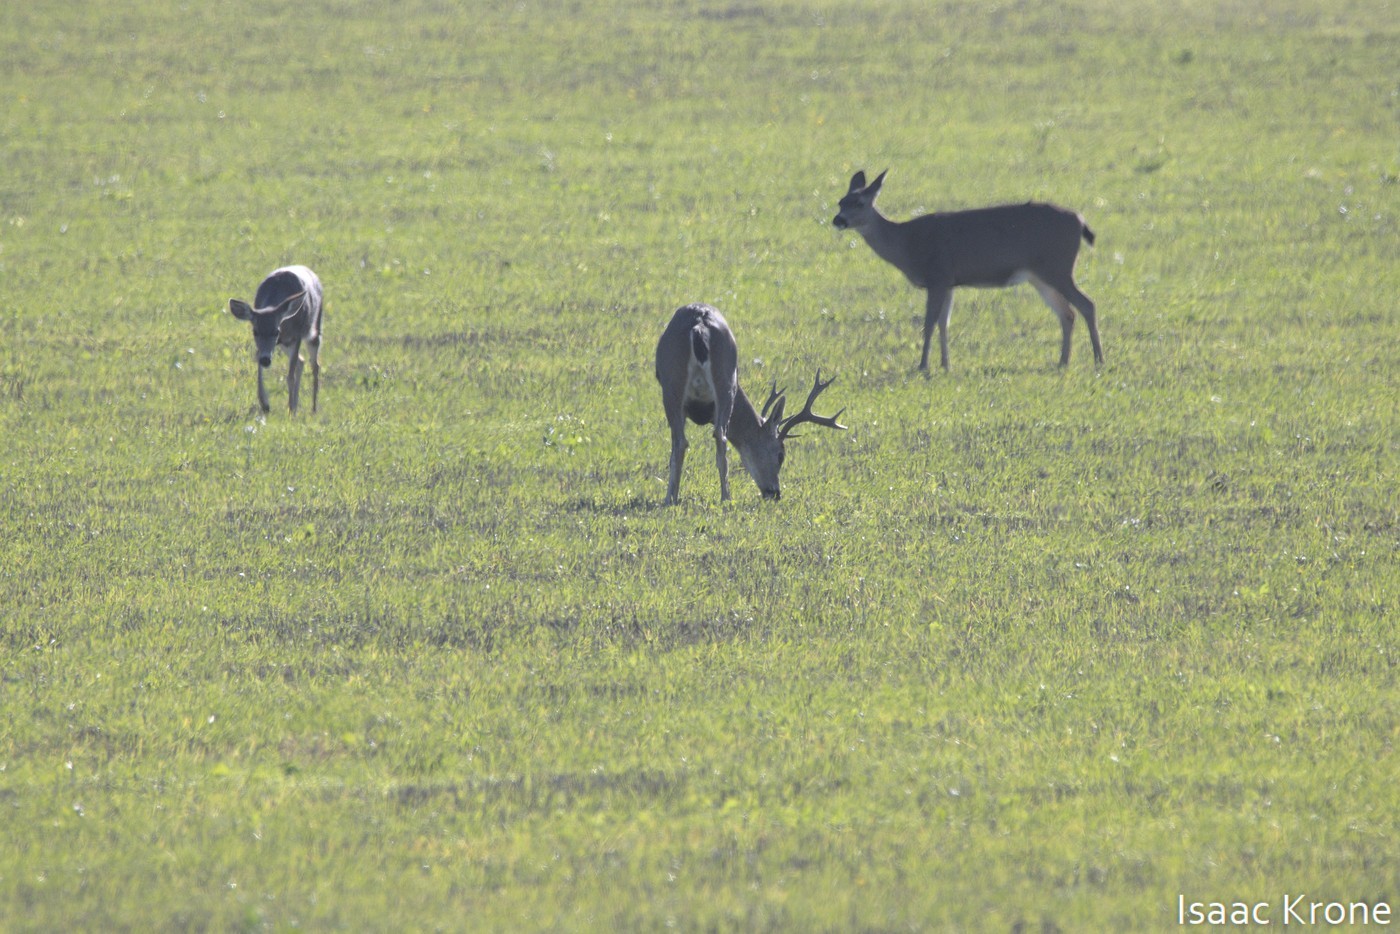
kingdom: Animalia
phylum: Chordata
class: Mammalia
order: Artiodactyla
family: Cervidae
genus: Odocoileus
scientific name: Odocoileus hemionus
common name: Mule deer
